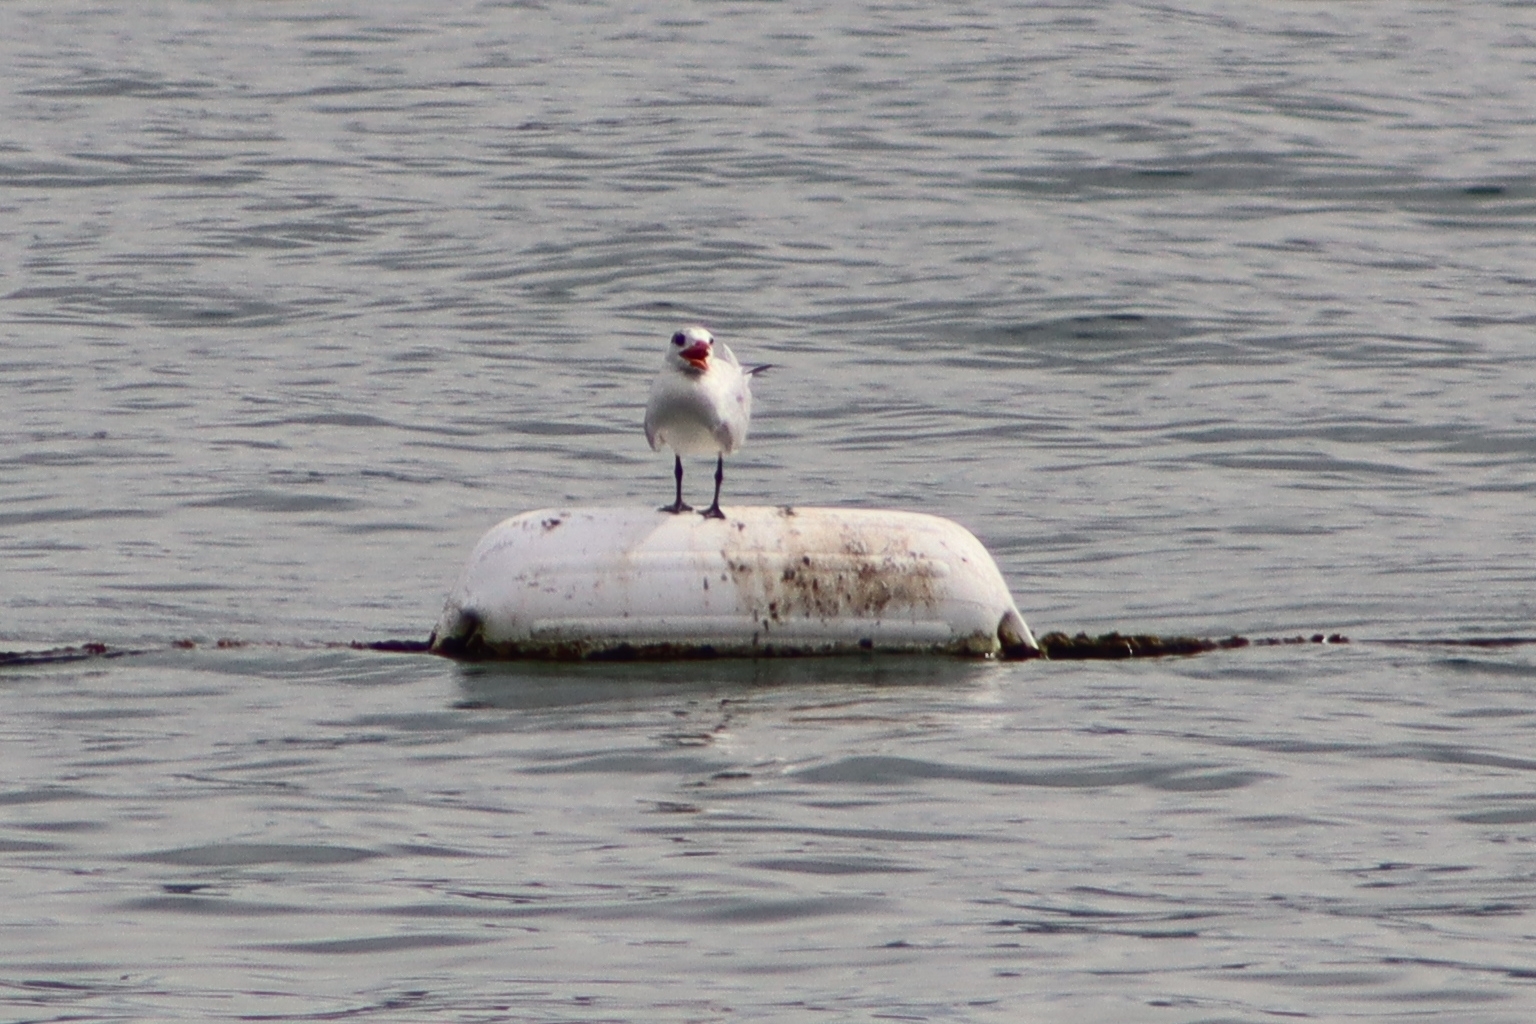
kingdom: Animalia
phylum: Chordata
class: Aves
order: Charadriiformes
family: Laridae
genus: Thalasseus
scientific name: Thalasseus maximus
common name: Royal tern
